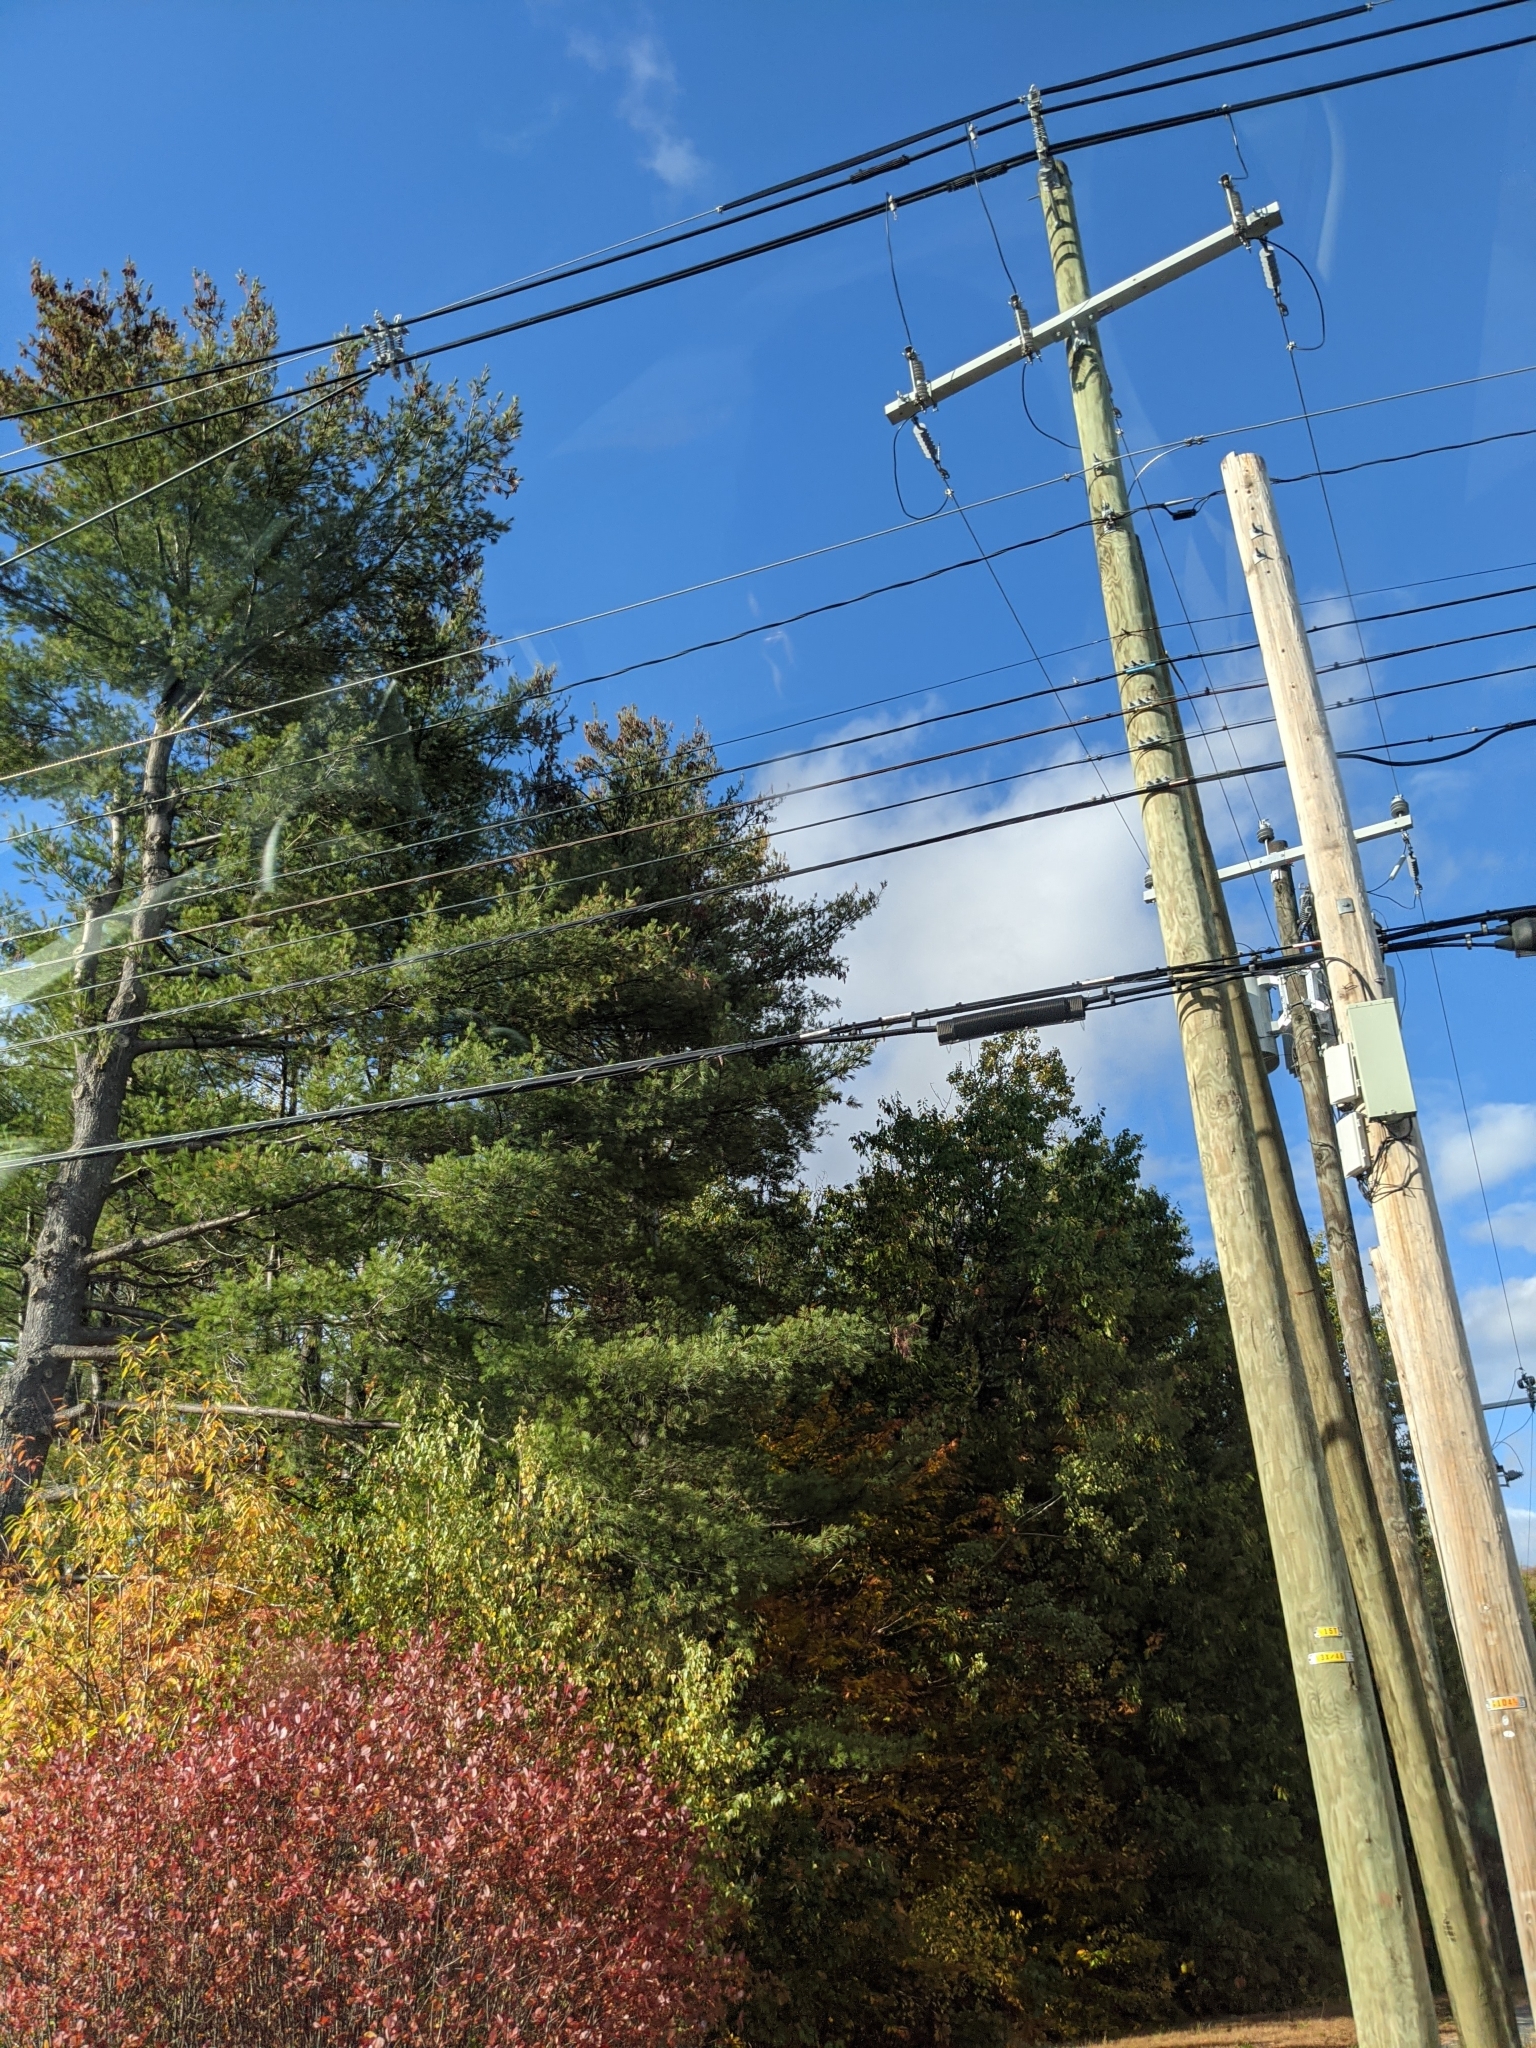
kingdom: Plantae
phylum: Tracheophyta
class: Pinopsida
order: Pinales
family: Pinaceae
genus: Pinus
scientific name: Pinus strobus
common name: Weymouth pine
